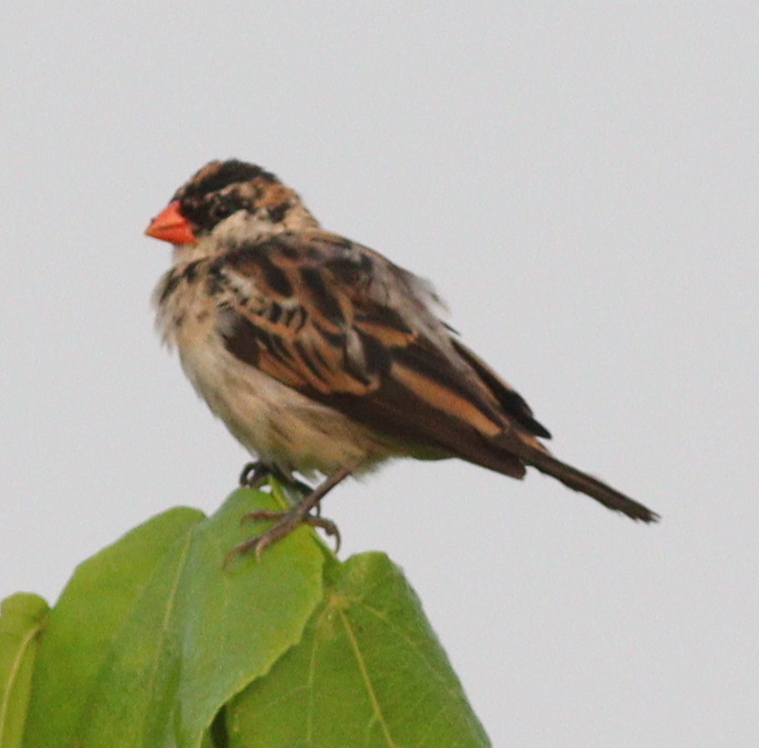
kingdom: Animalia
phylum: Chordata
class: Aves
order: Passeriformes
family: Viduidae
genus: Vidua
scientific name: Vidua macroura
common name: Pin-tailed whydah
